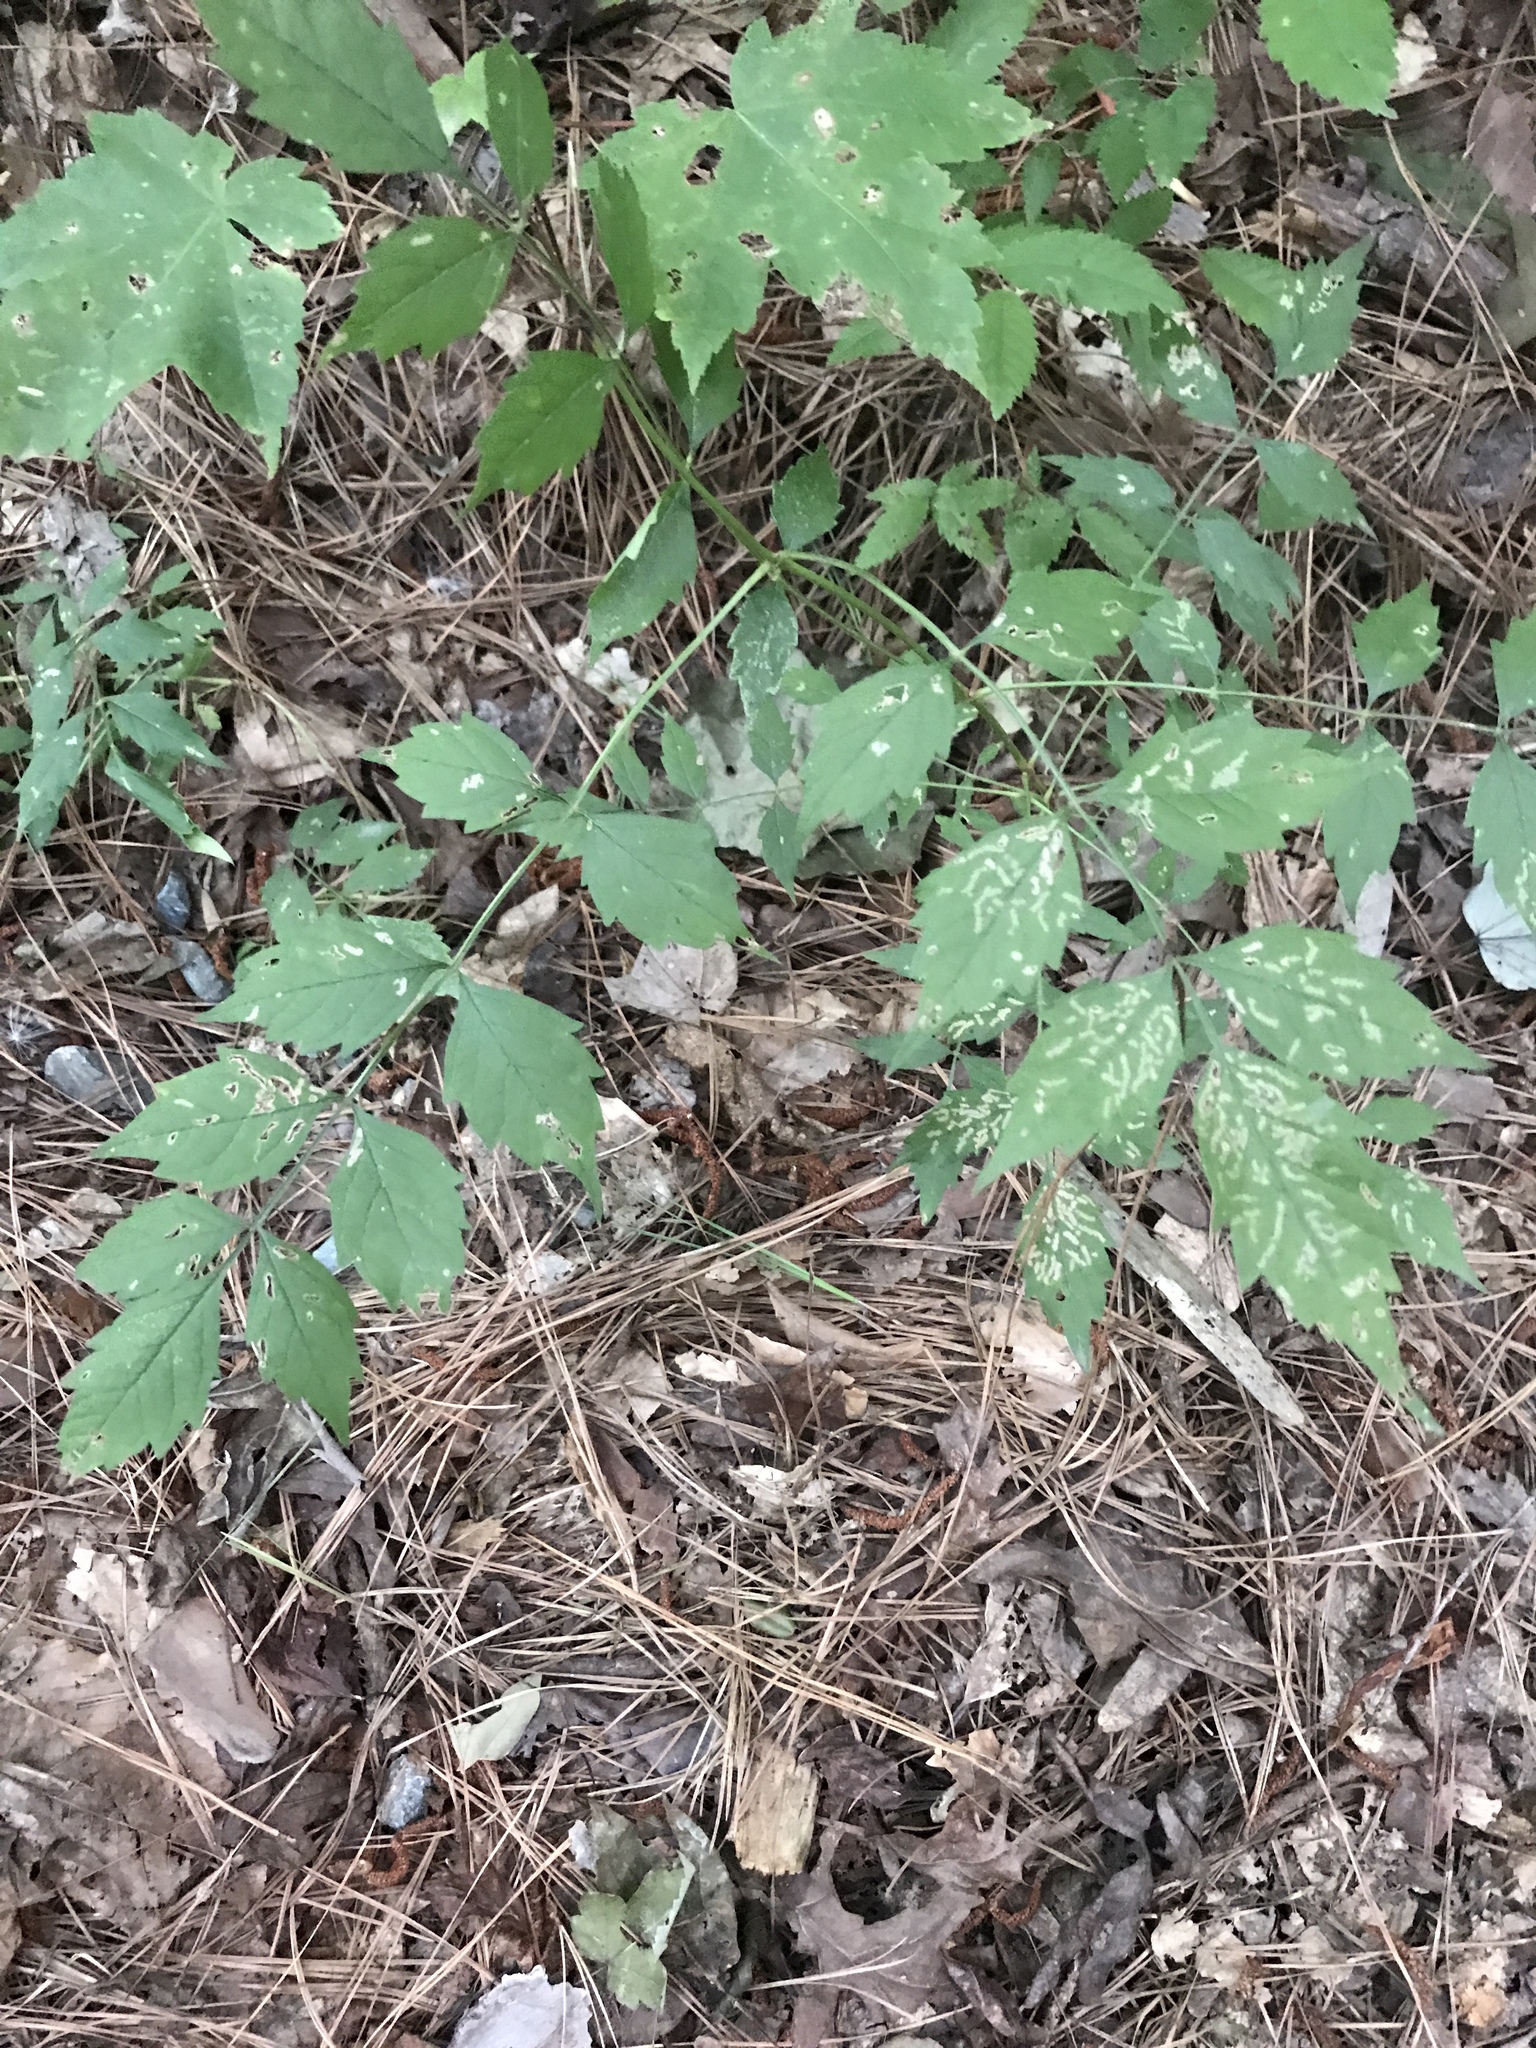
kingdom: Plantae
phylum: Tracheophyta
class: Magnoliopsida
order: Lamiales
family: Bignoniaceae
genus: Campsis
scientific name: Campsis radicans
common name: Trumpet-creeper
